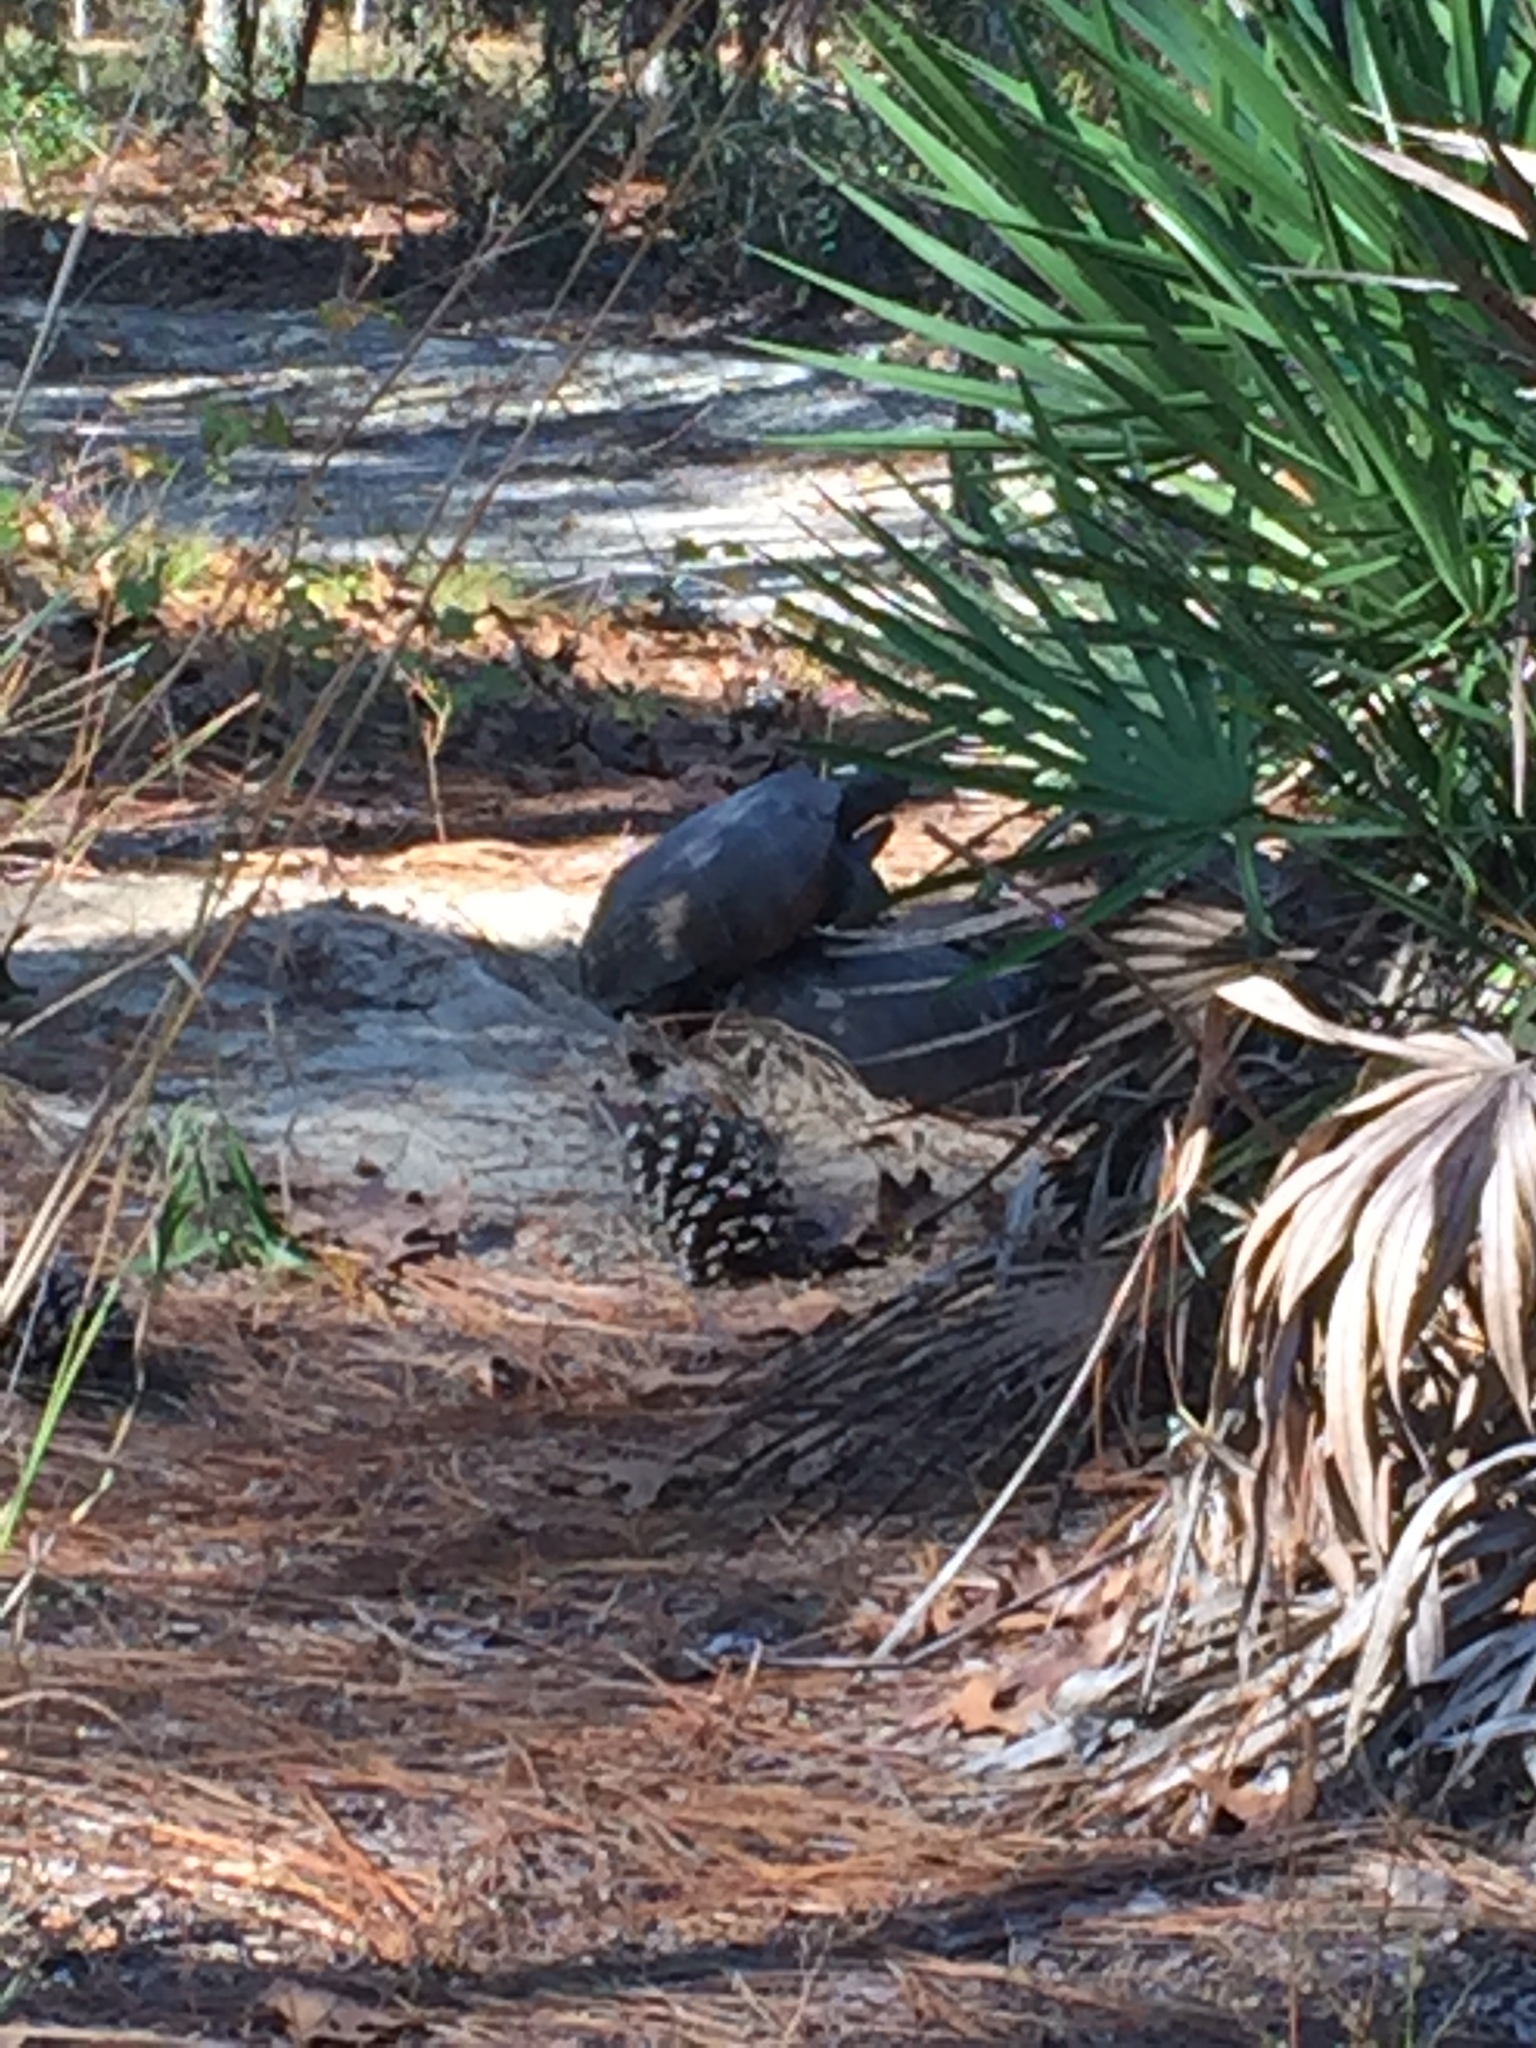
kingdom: Animalia
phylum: Chordata
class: Testudines
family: Testudinidae
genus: Gopherus
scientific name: Gopherus polyphemus
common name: Florida gopher tortoise
